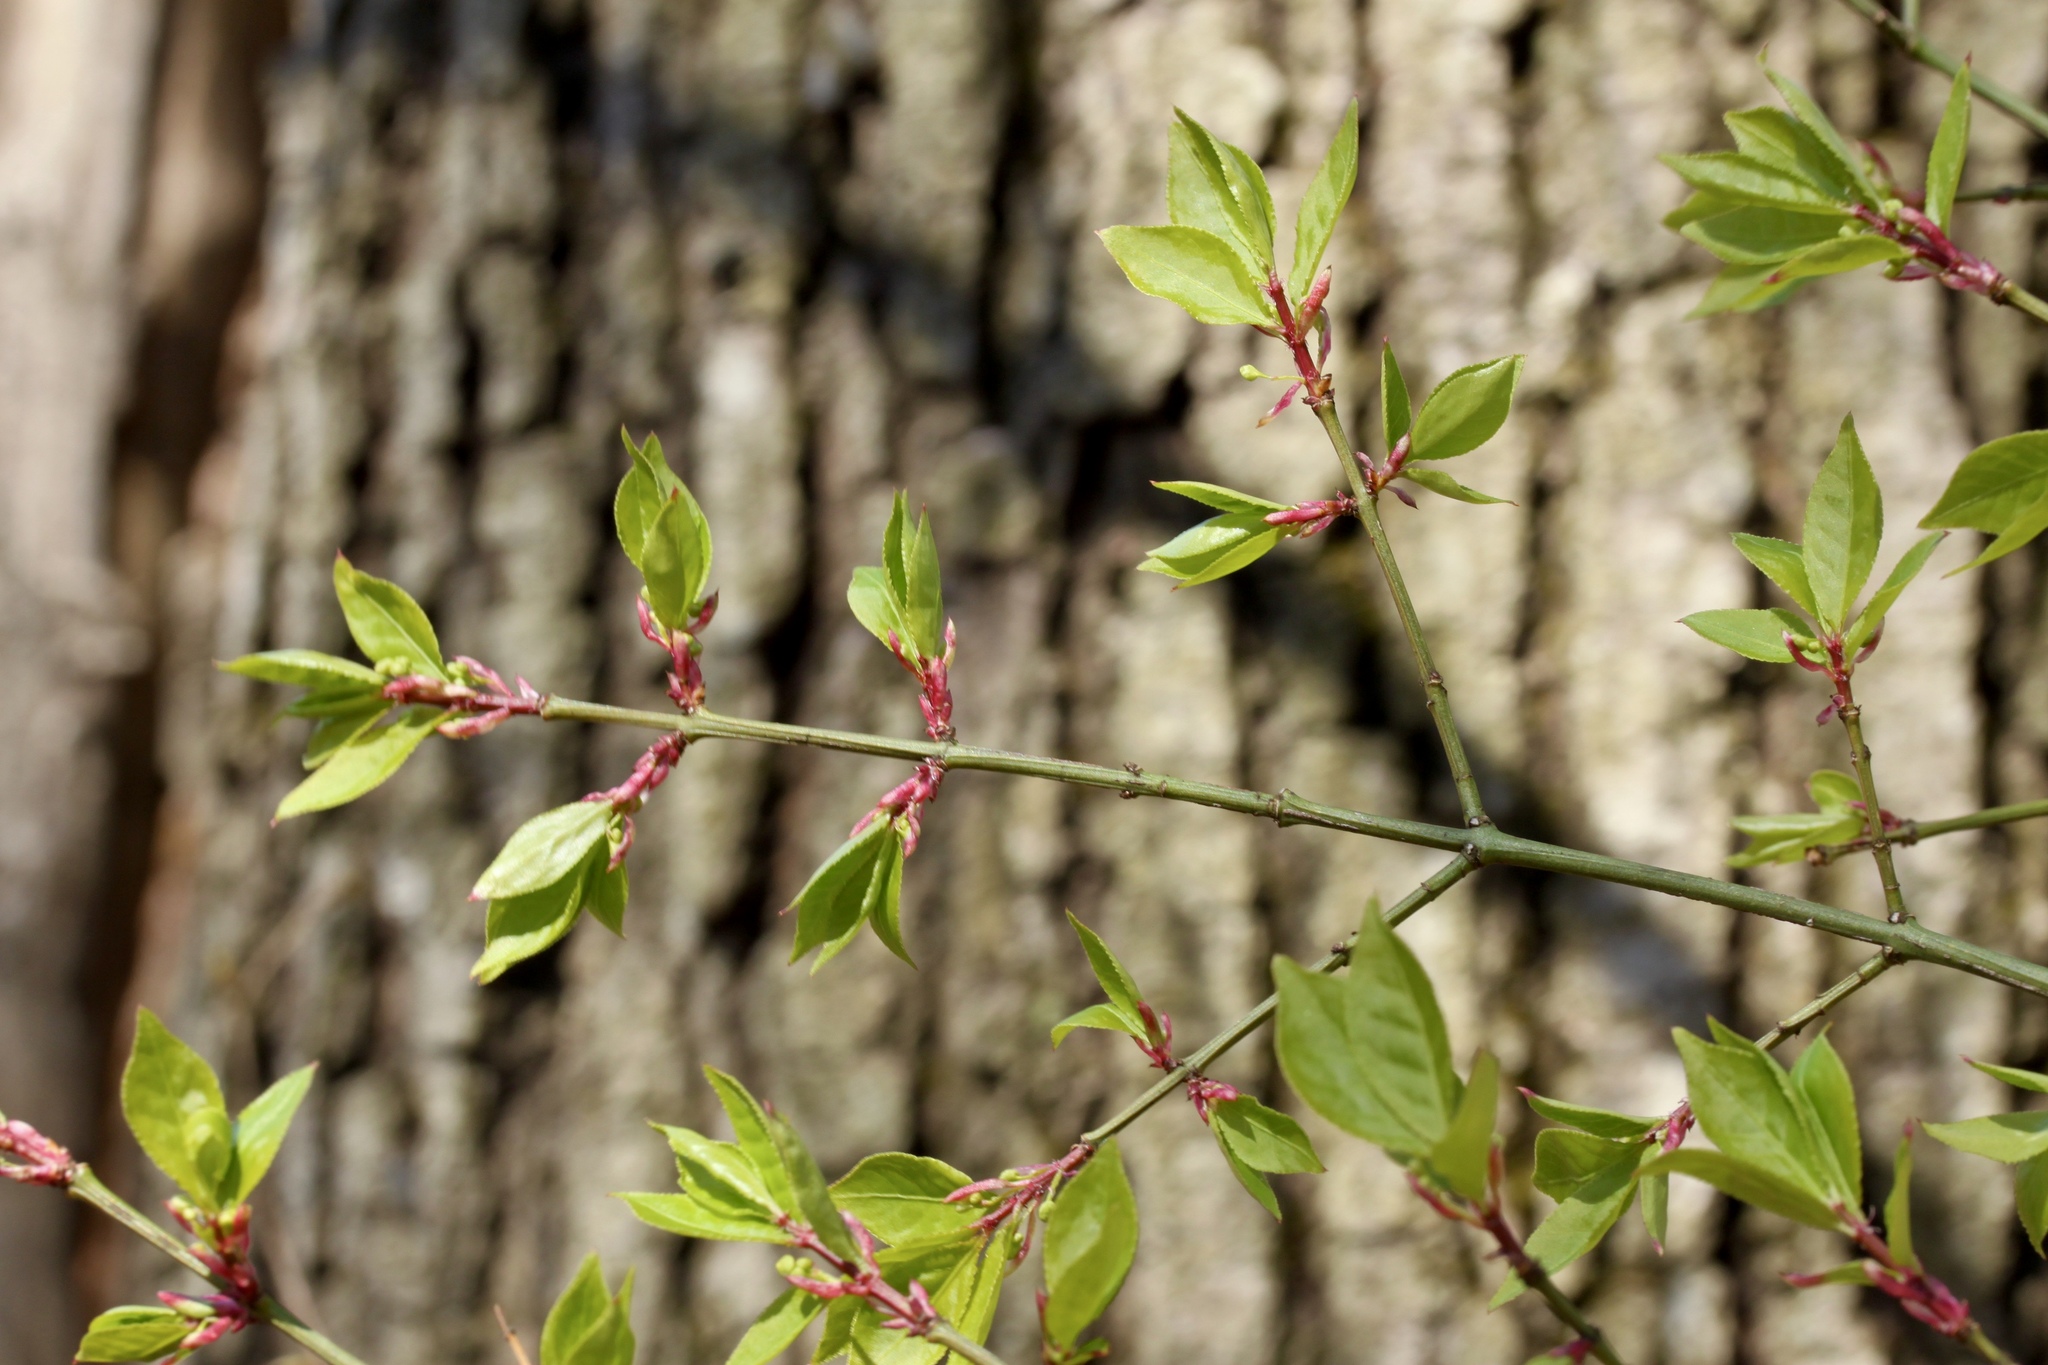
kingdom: Plantae
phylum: Tracheophyta
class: Magnoliopsida
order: Celastrales
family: Celastraceae
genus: Euonymus
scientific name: Euonymus alatus
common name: Winged euonymus
